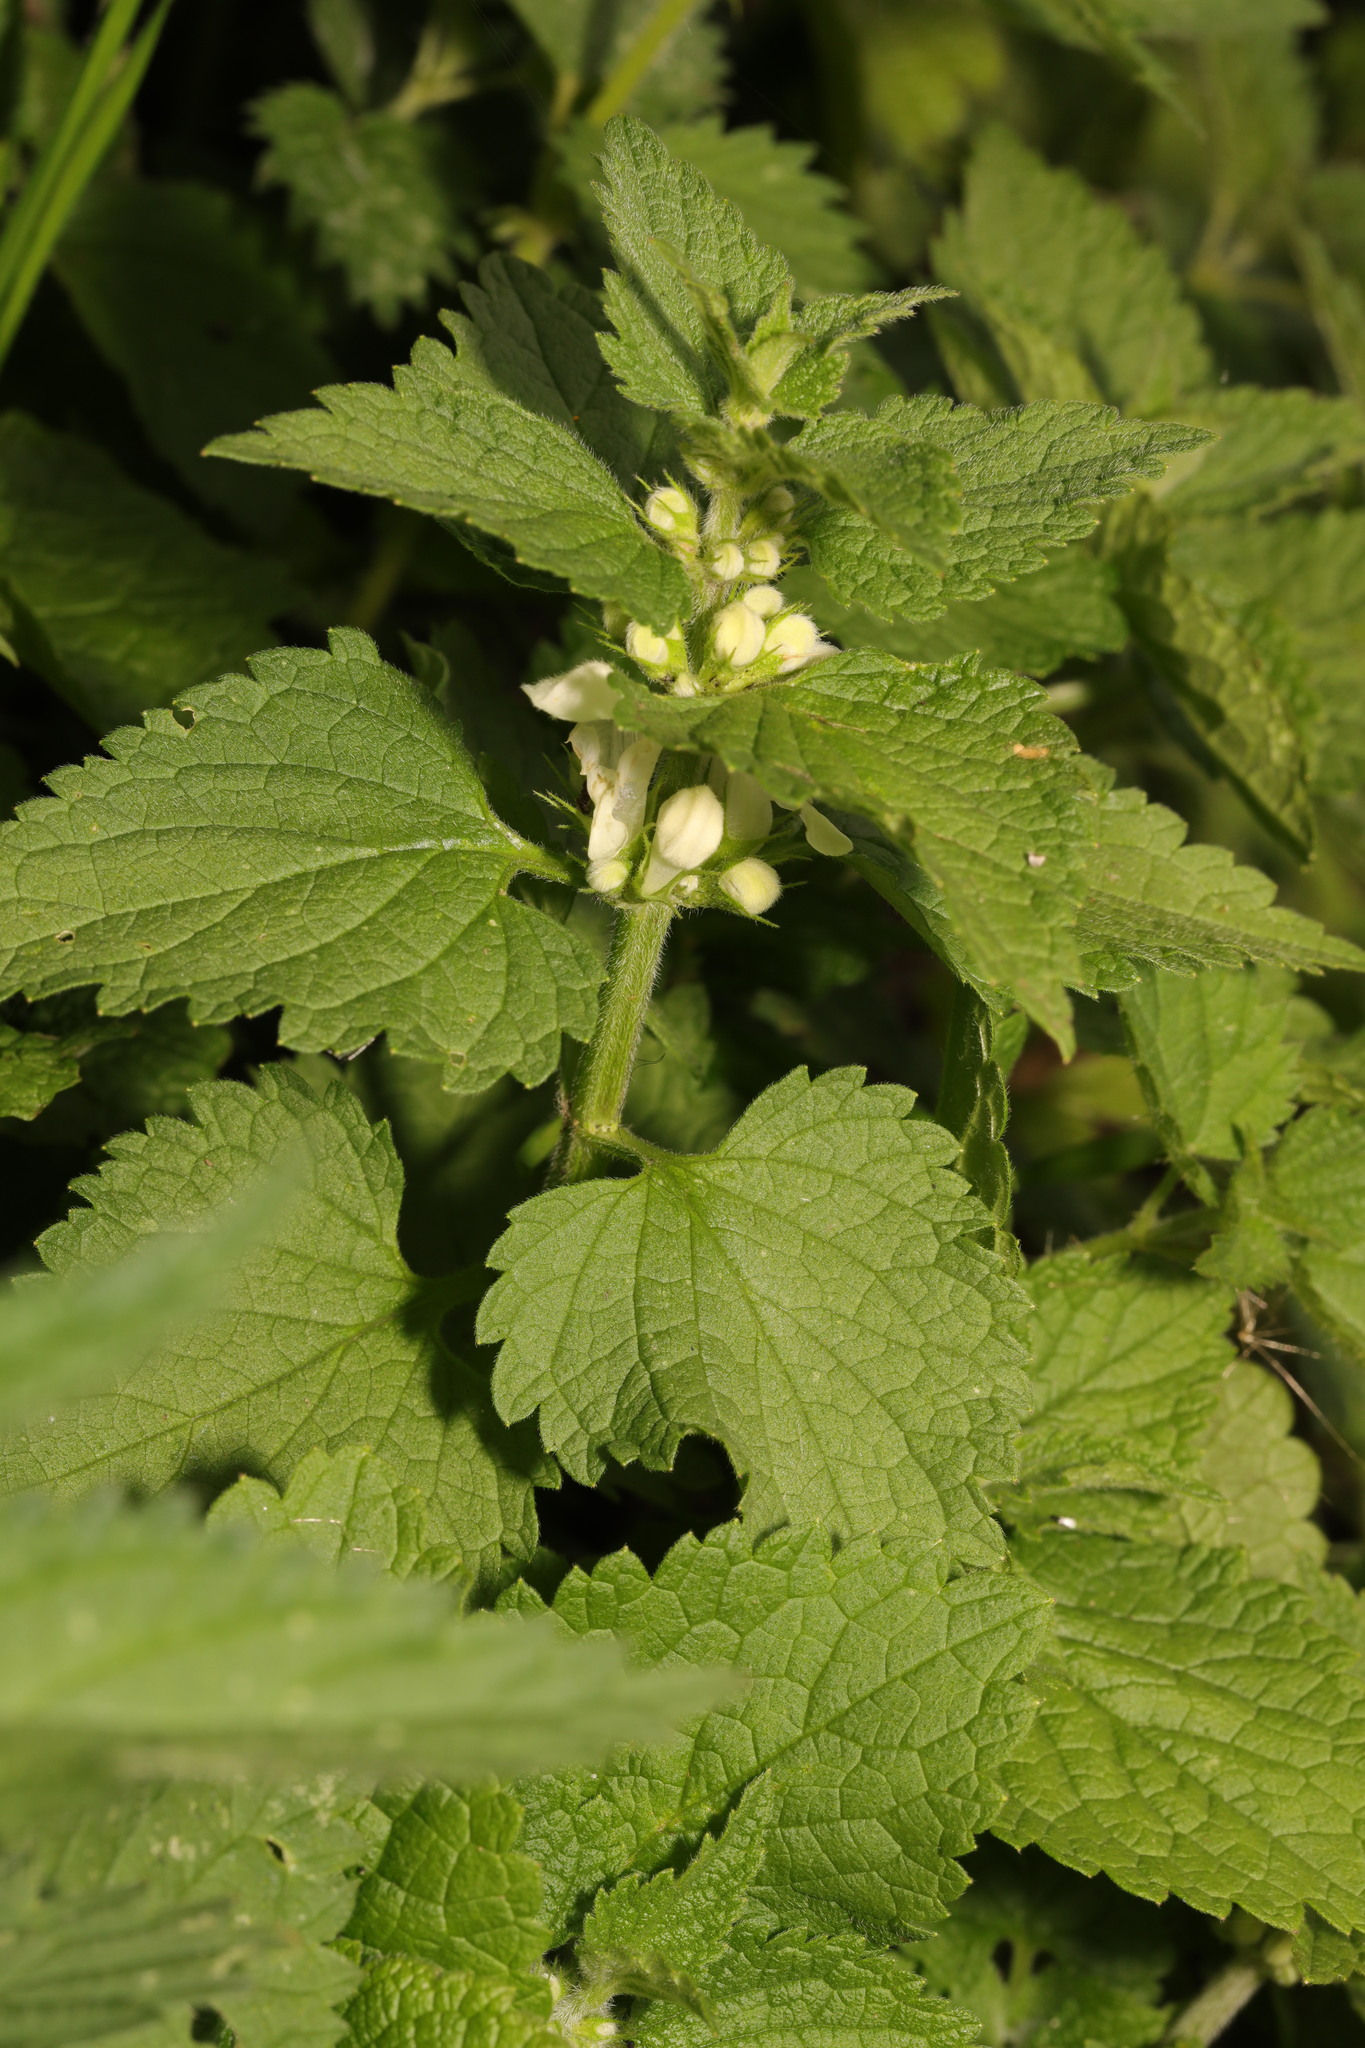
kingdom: Plantae
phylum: Tracheophyta
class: Magnoliopsida
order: Lamiales
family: Lamiaceae
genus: Lamium
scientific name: Lamium album
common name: White dead-nettle
